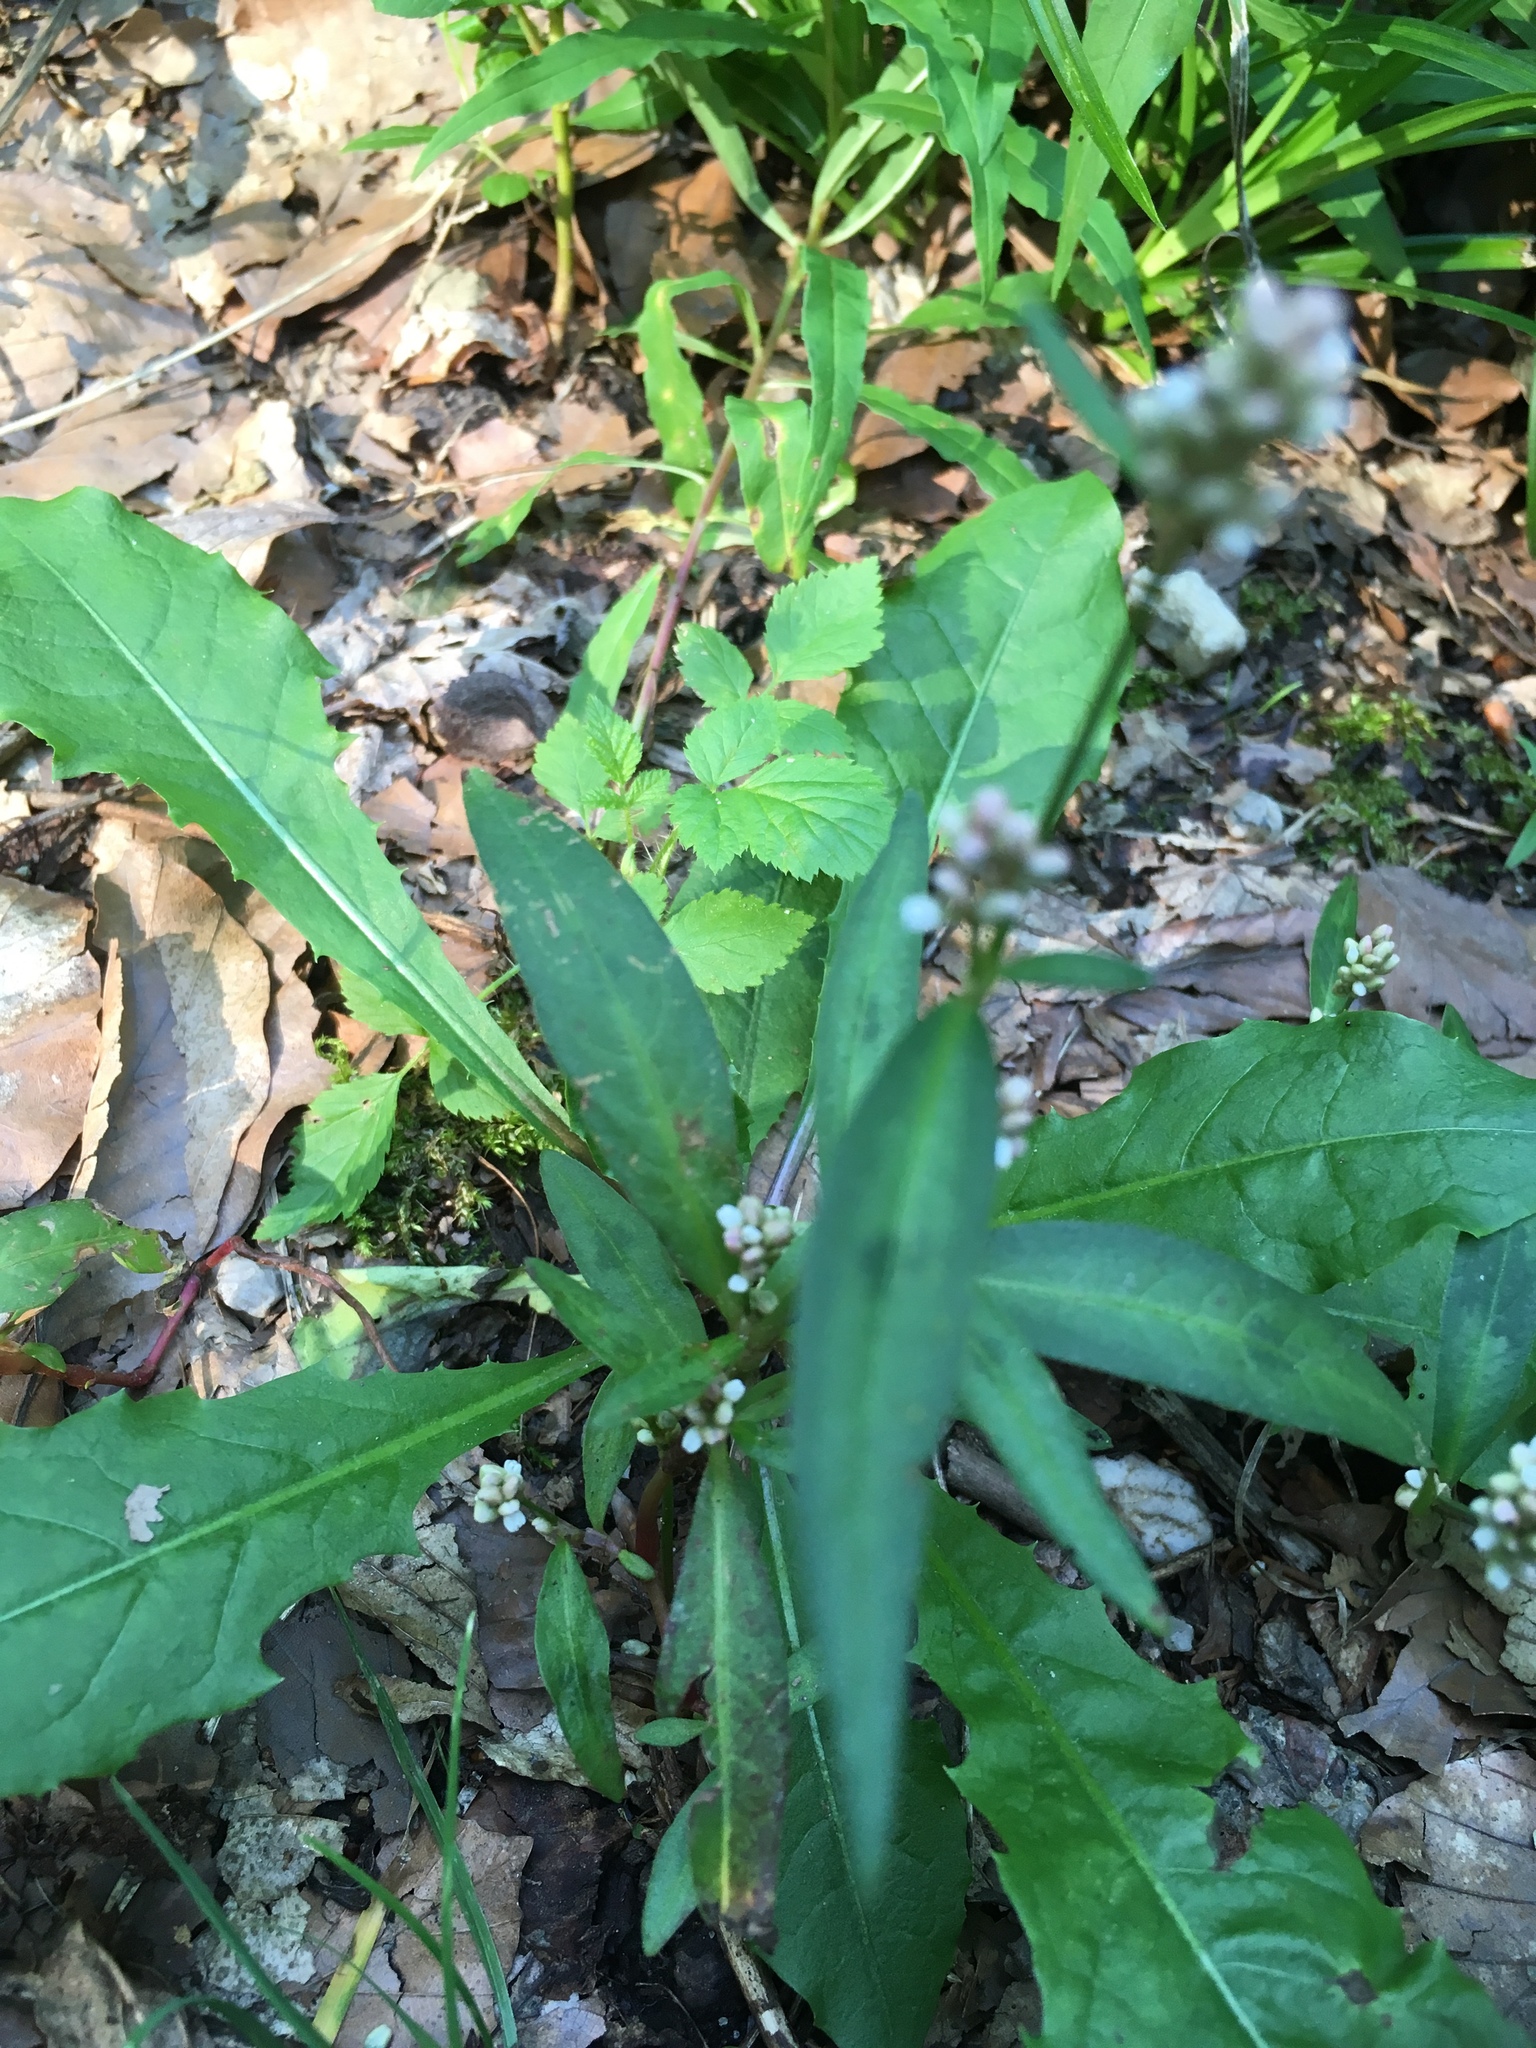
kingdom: Plantae
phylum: Tracheophyta
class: Magnoliopsida
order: Caryophyllales
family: Polygonaceae
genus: Persicaria
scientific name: Persicaria maculosa
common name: Redshank
